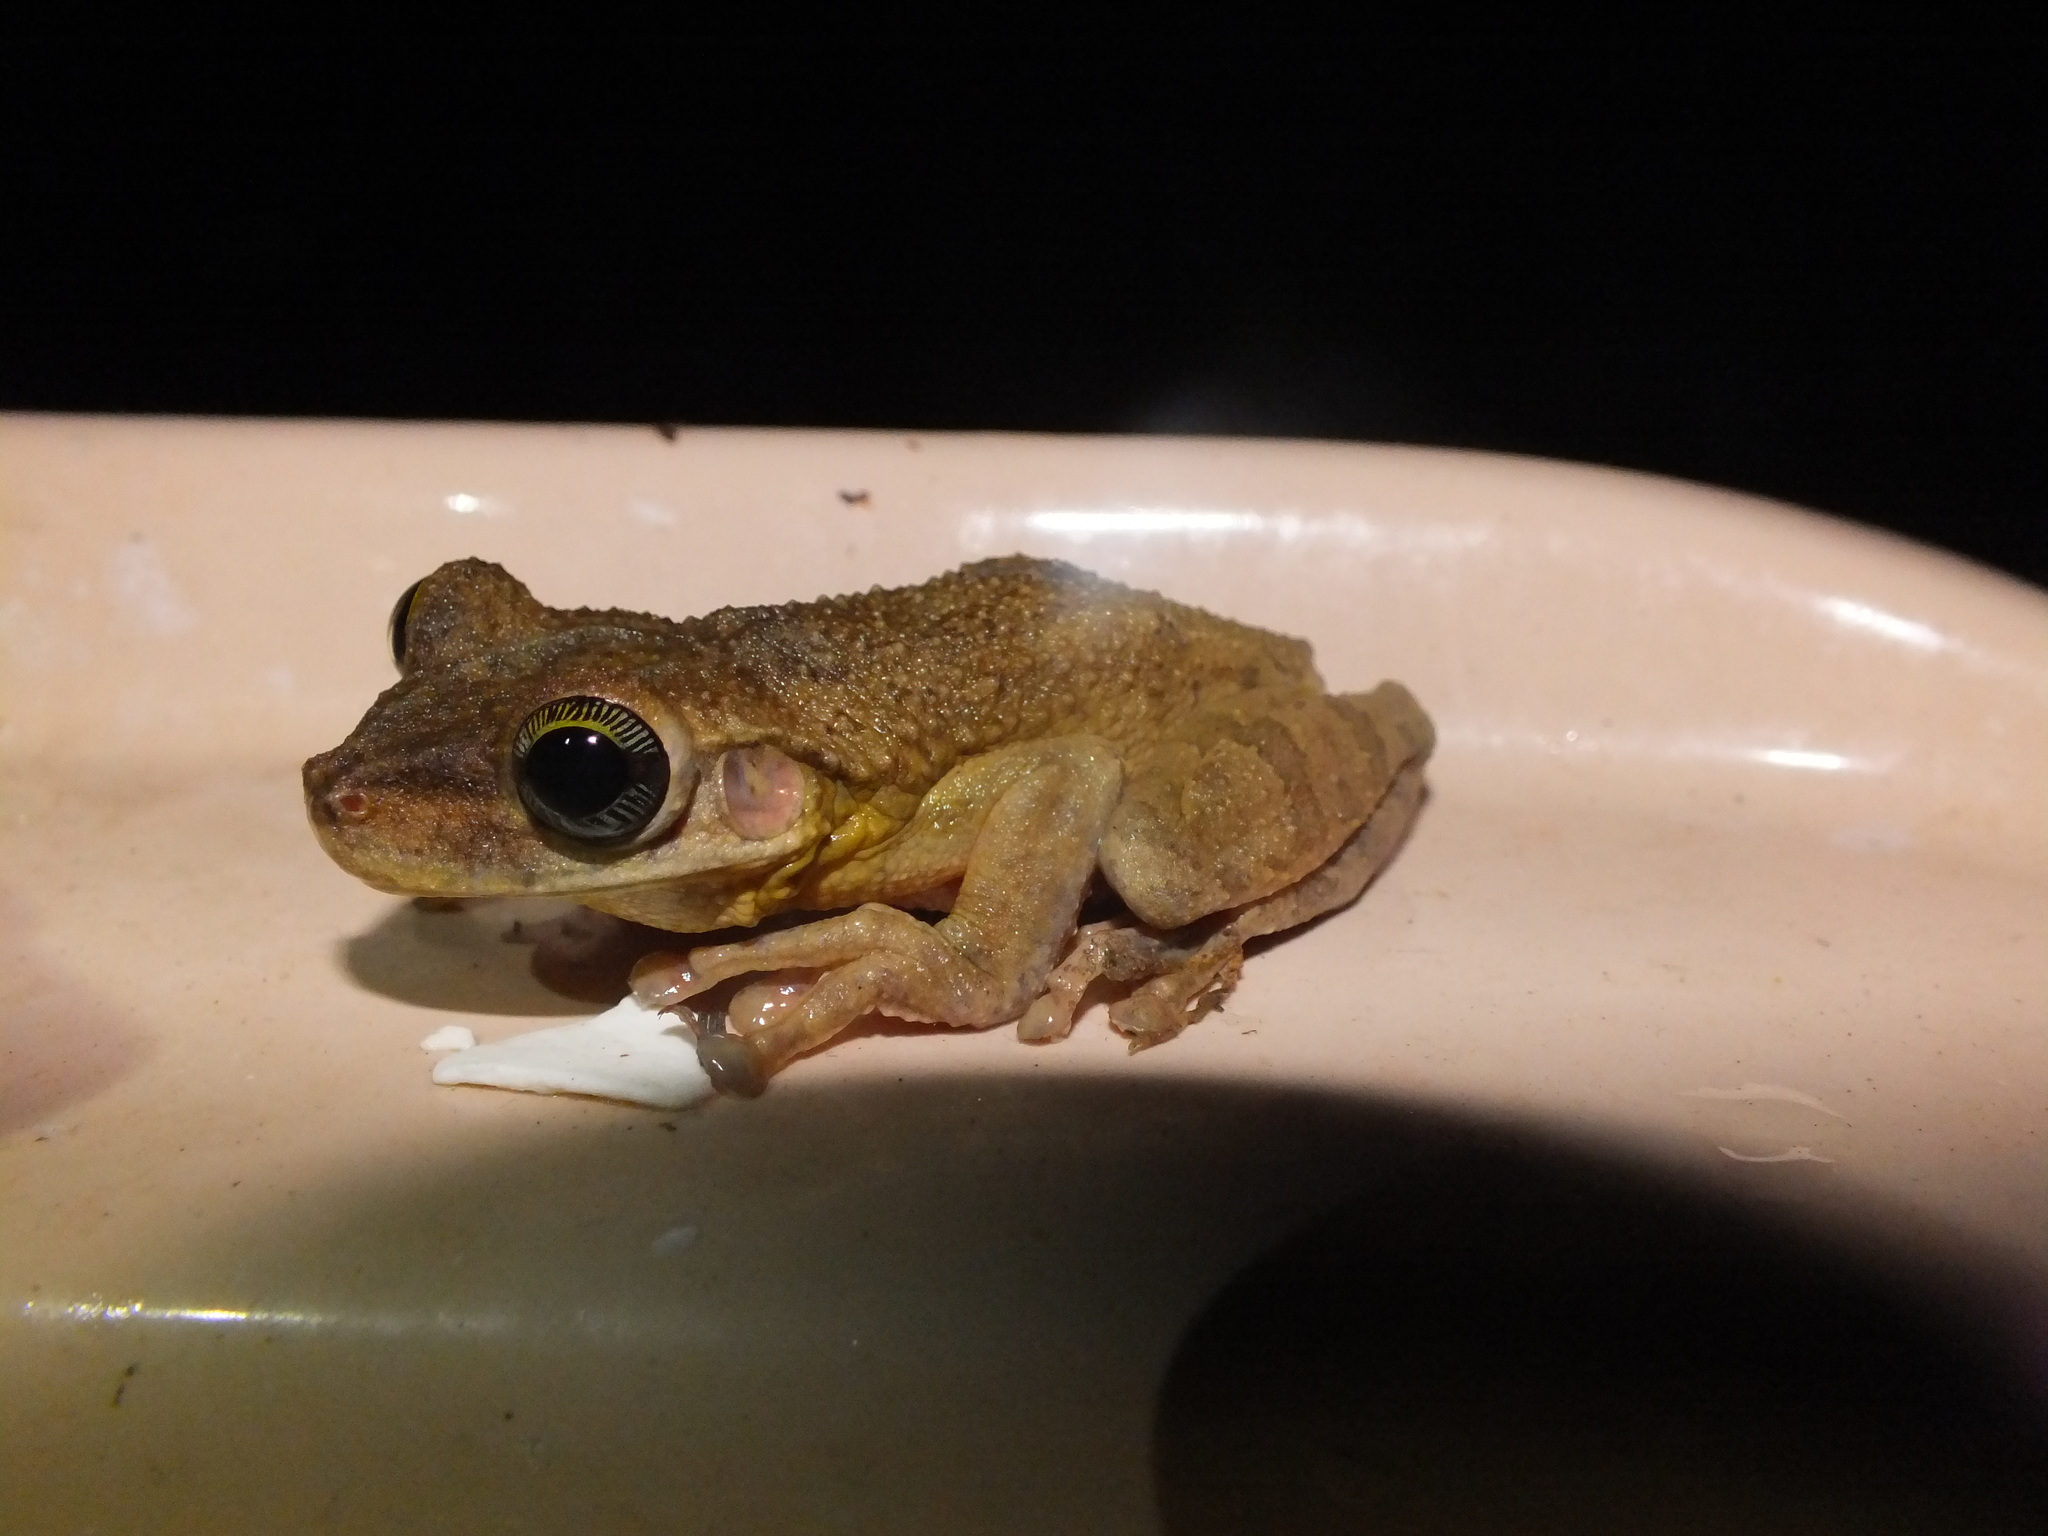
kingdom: Animalia
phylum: Chordata
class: Amphibia
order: Anura
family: Hylidae
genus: Osteocephalus
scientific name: Osteocephalus taurinus
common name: Manaus slender-legged treefrog
